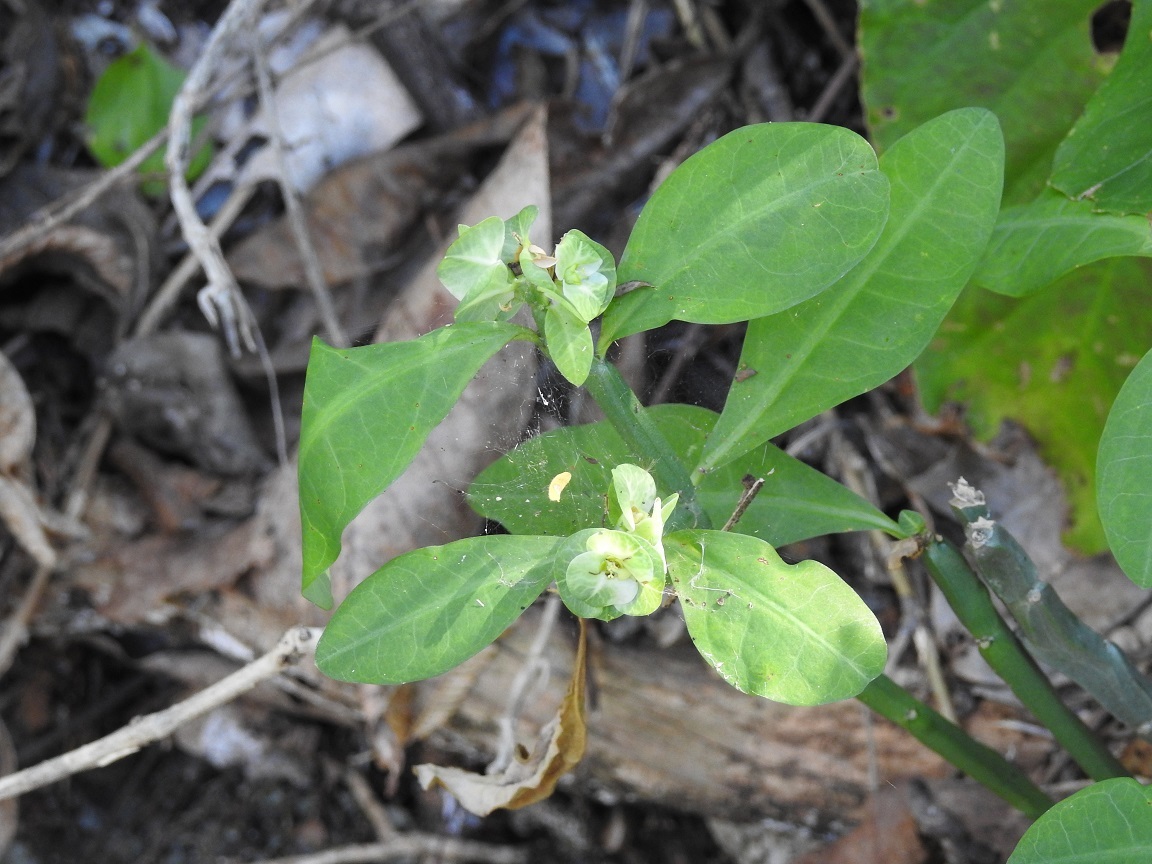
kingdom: Plantae
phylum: Tracheophyta
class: Magnoliopsida
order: Malpighiales
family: Euphorbiaceae
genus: Euphorbia
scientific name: Euphorbia pteroneura
